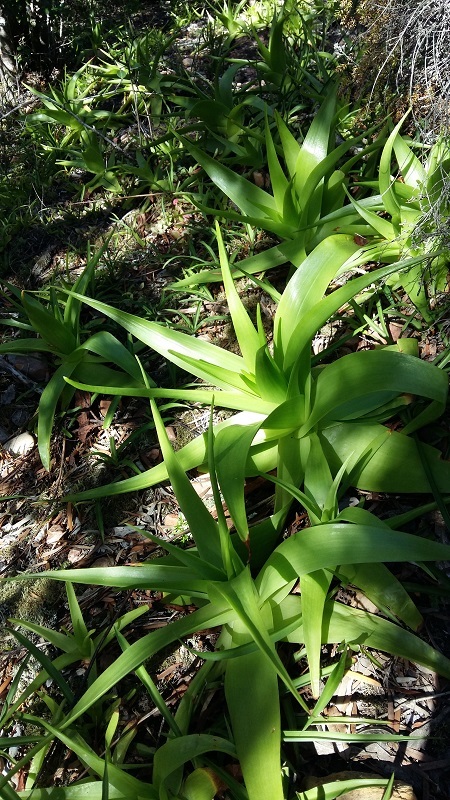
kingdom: Plantae
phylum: Tracheophyta
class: Liliopsida
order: Asparagales
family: Asphodelaceae
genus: Bulbine
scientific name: Bulbine latifolia
